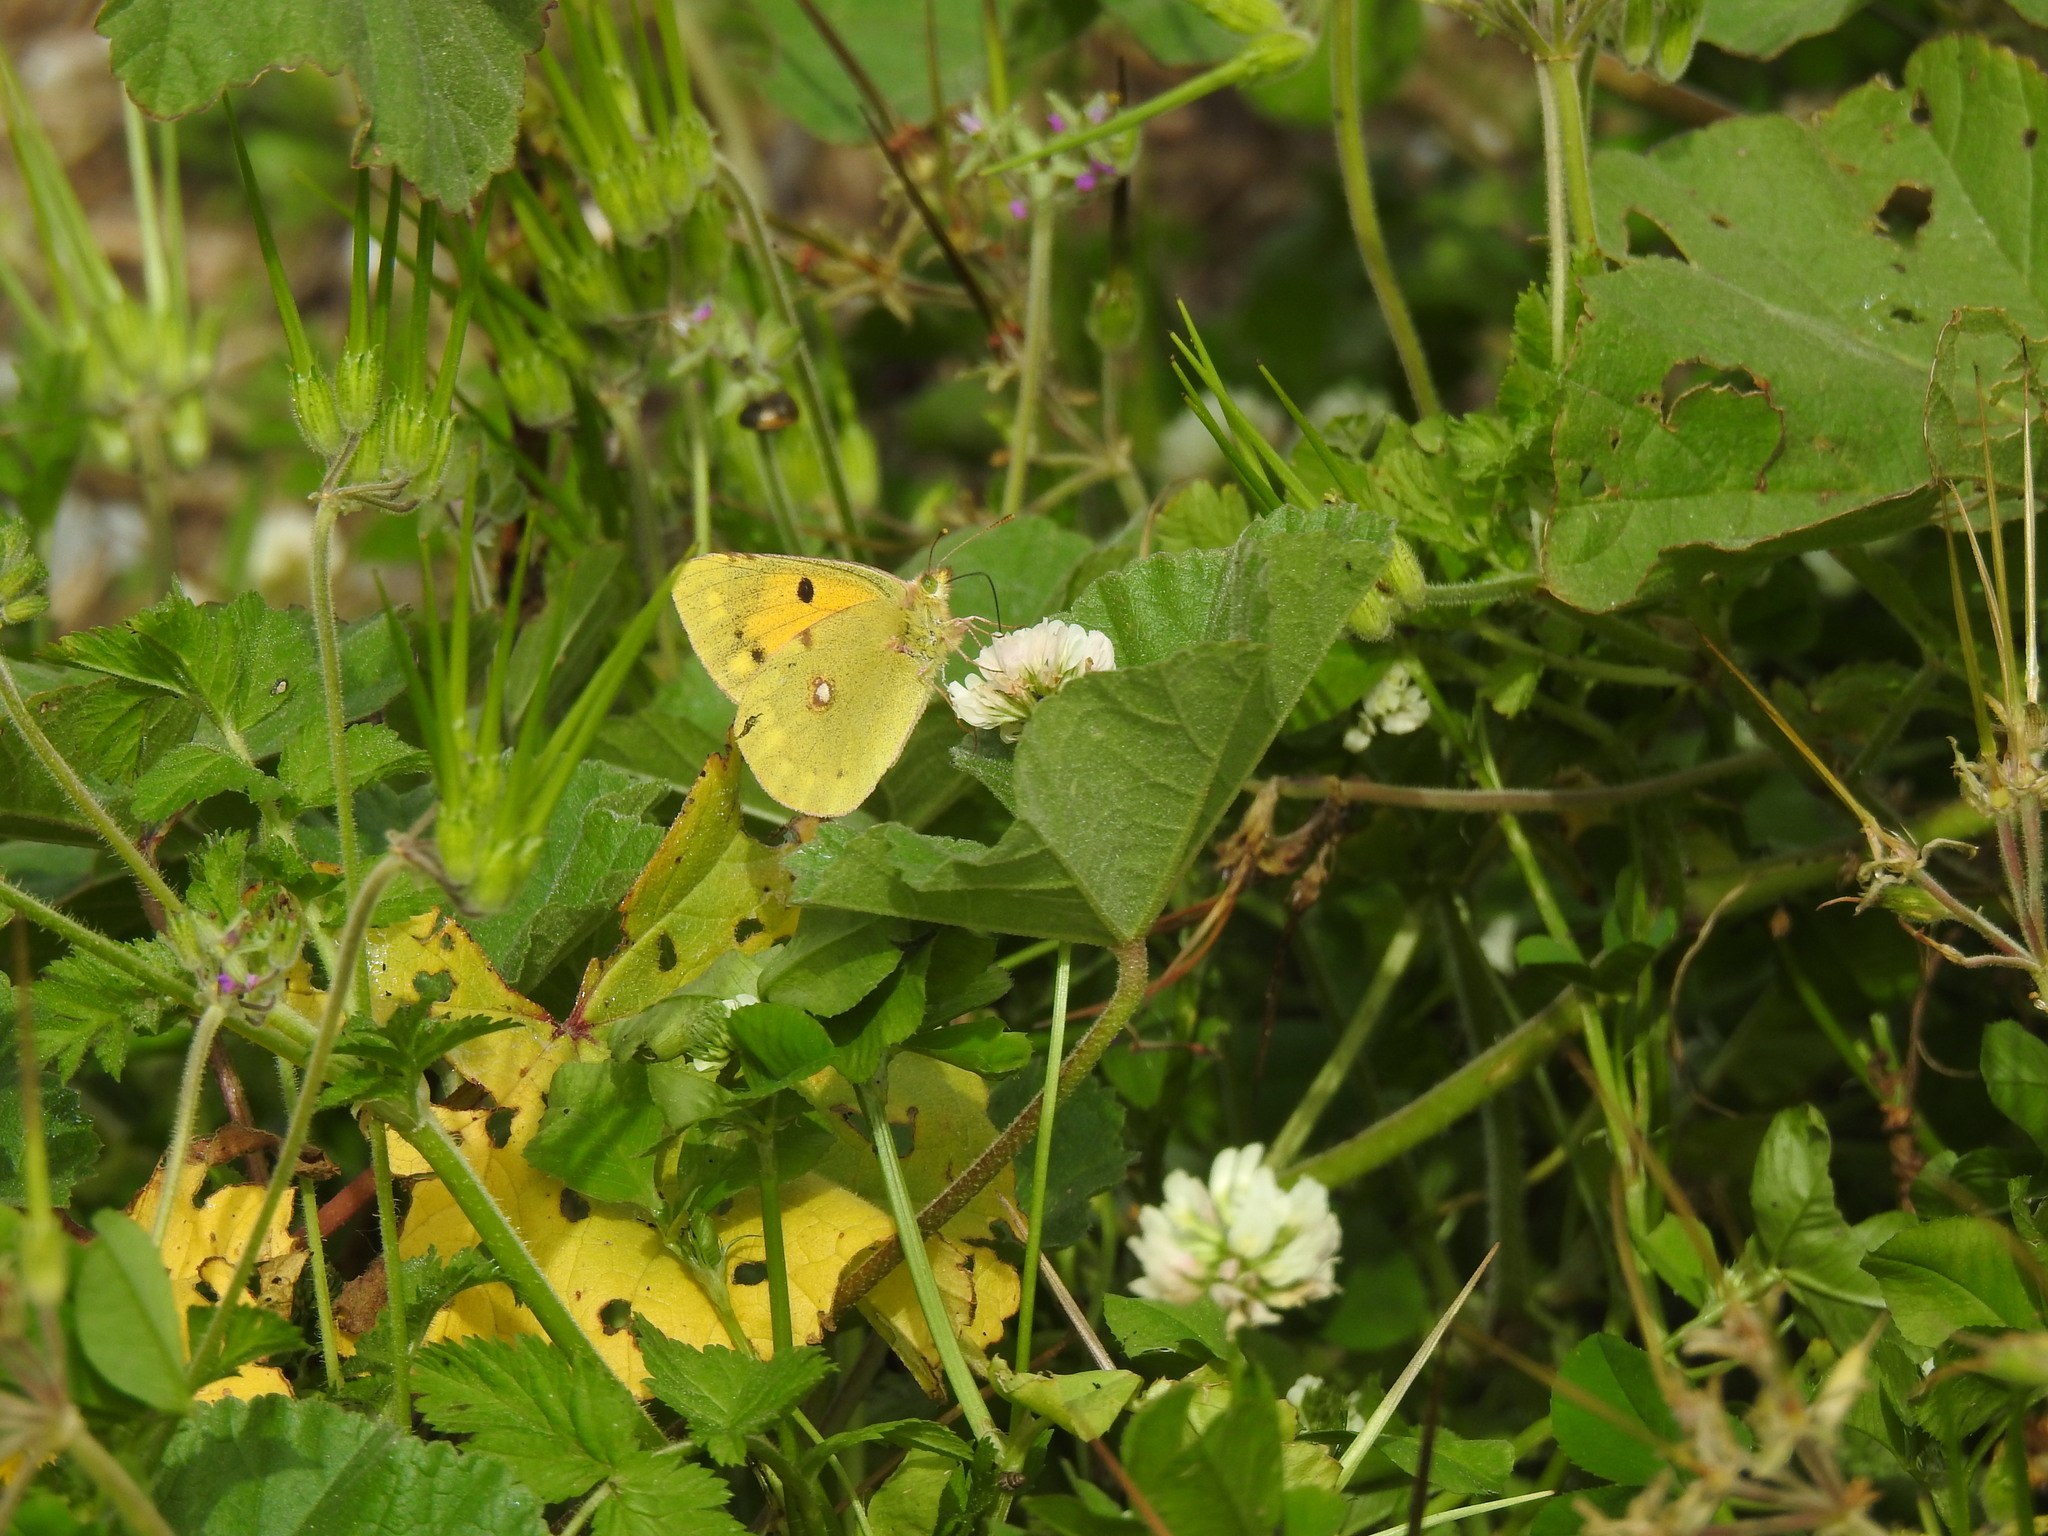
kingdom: Animalia
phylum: Arthropoda
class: Insecta
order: Lepidoptera
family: Pieridae
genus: Colias
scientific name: Colias croceus
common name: Clouded yellow
